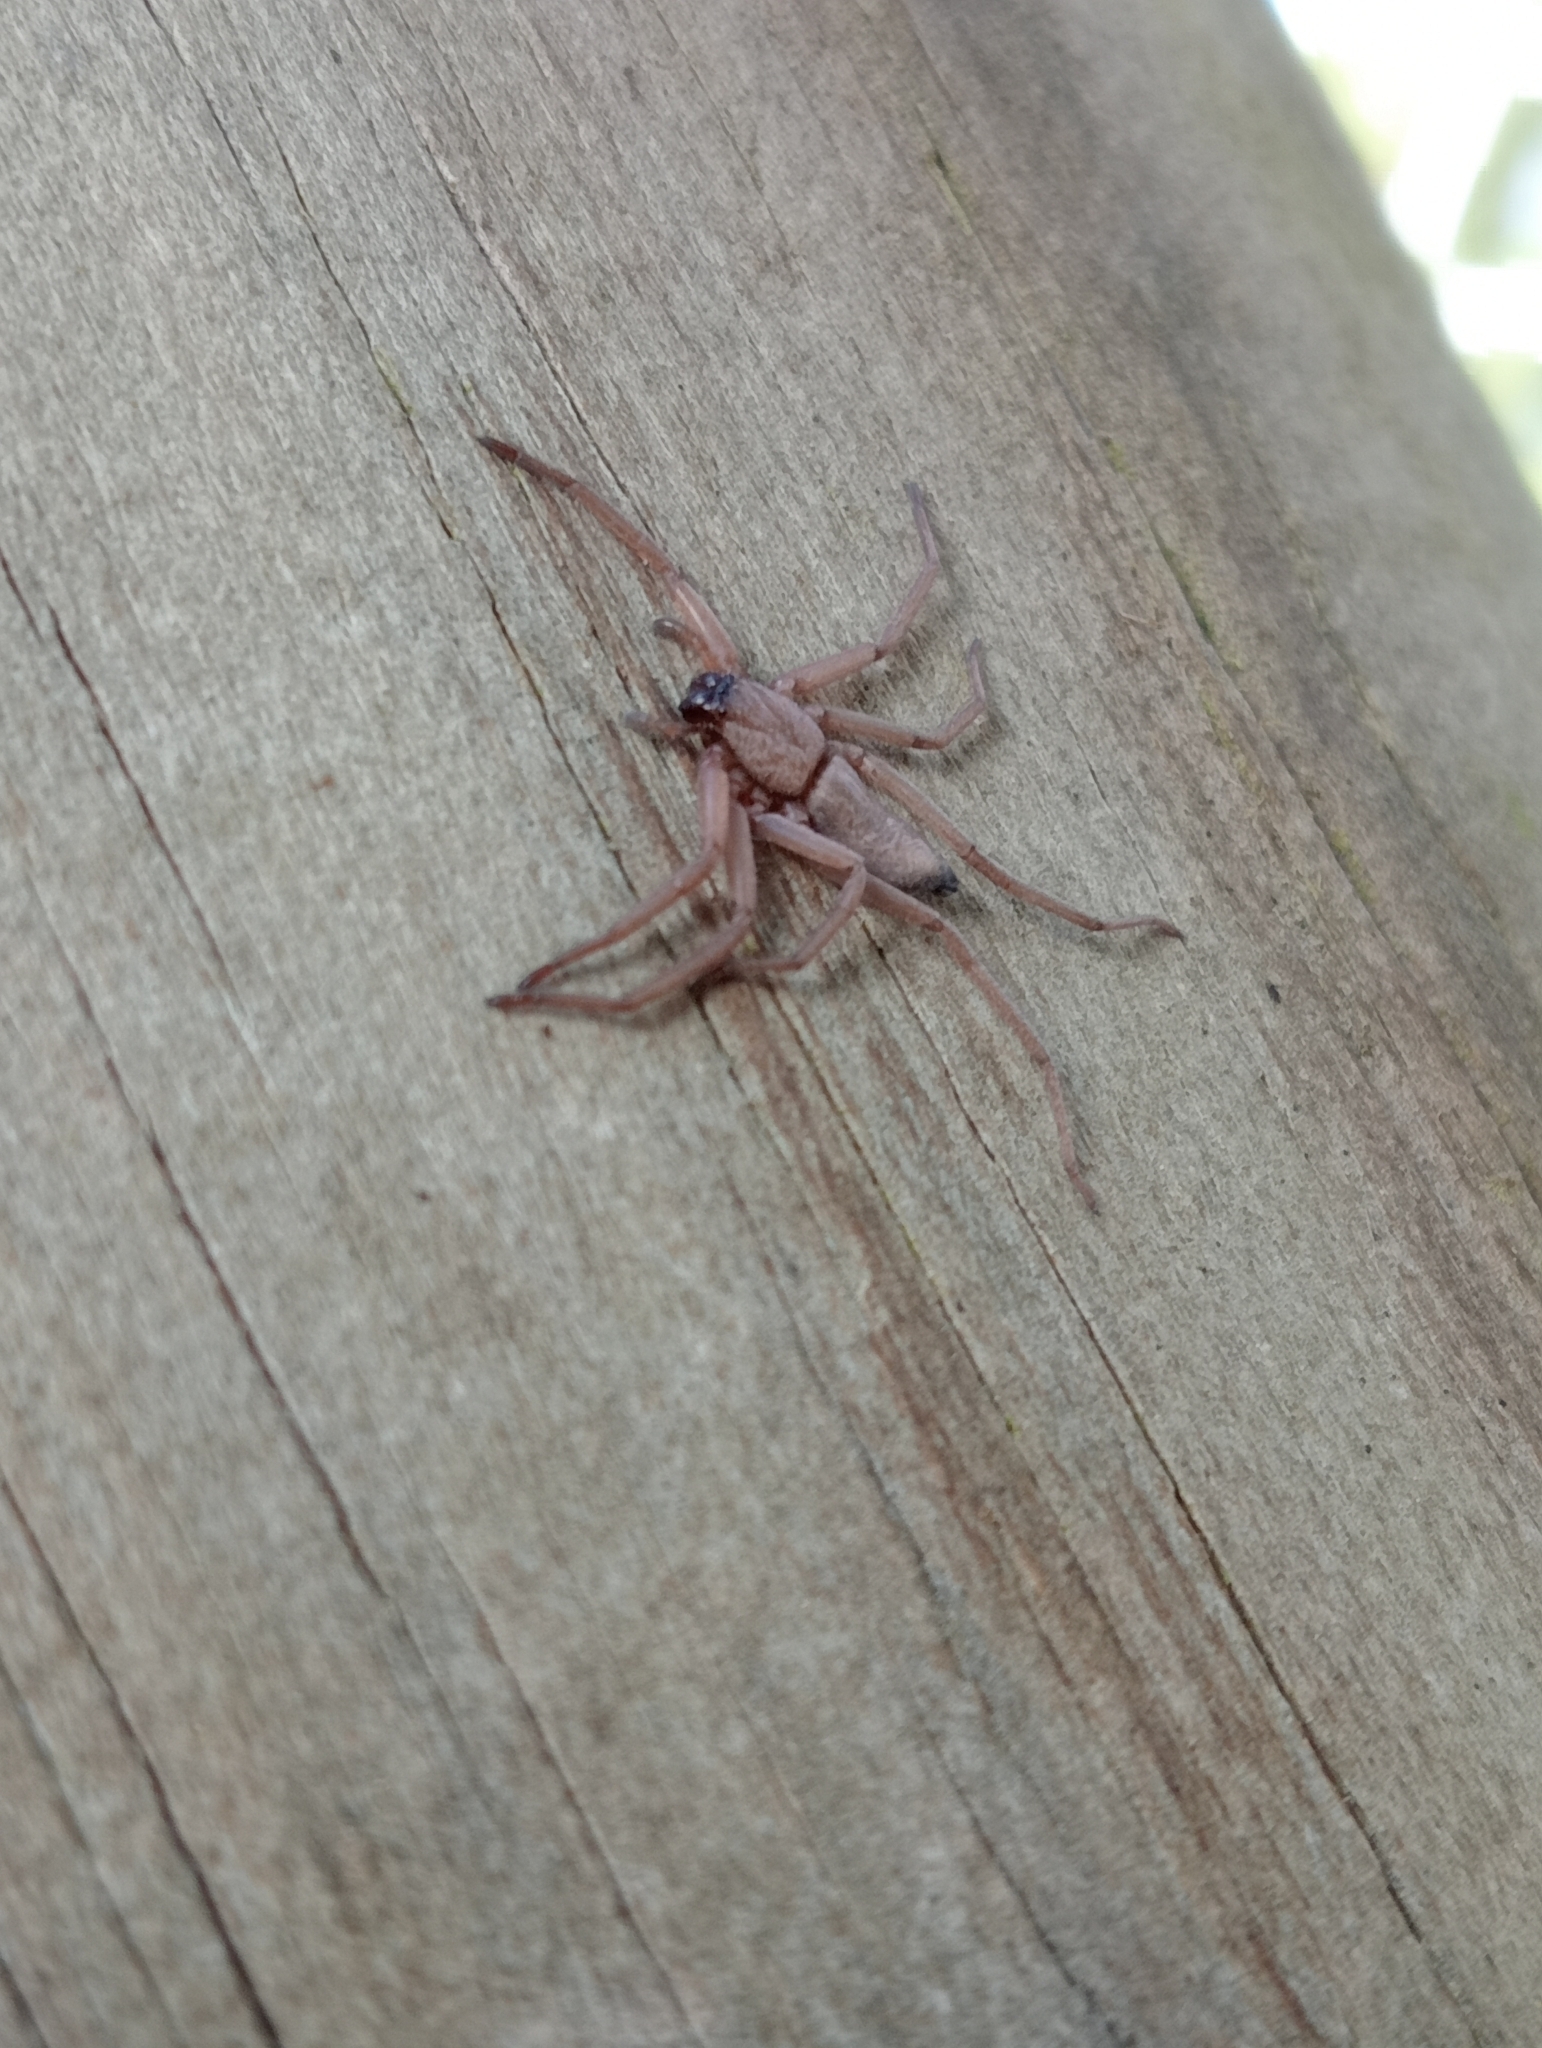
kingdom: Animalia
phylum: Arthropoda
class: Arachnida
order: Araneae
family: Trochanteriidae
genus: Hemicloea
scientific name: Hemicloea rogenhoferi
